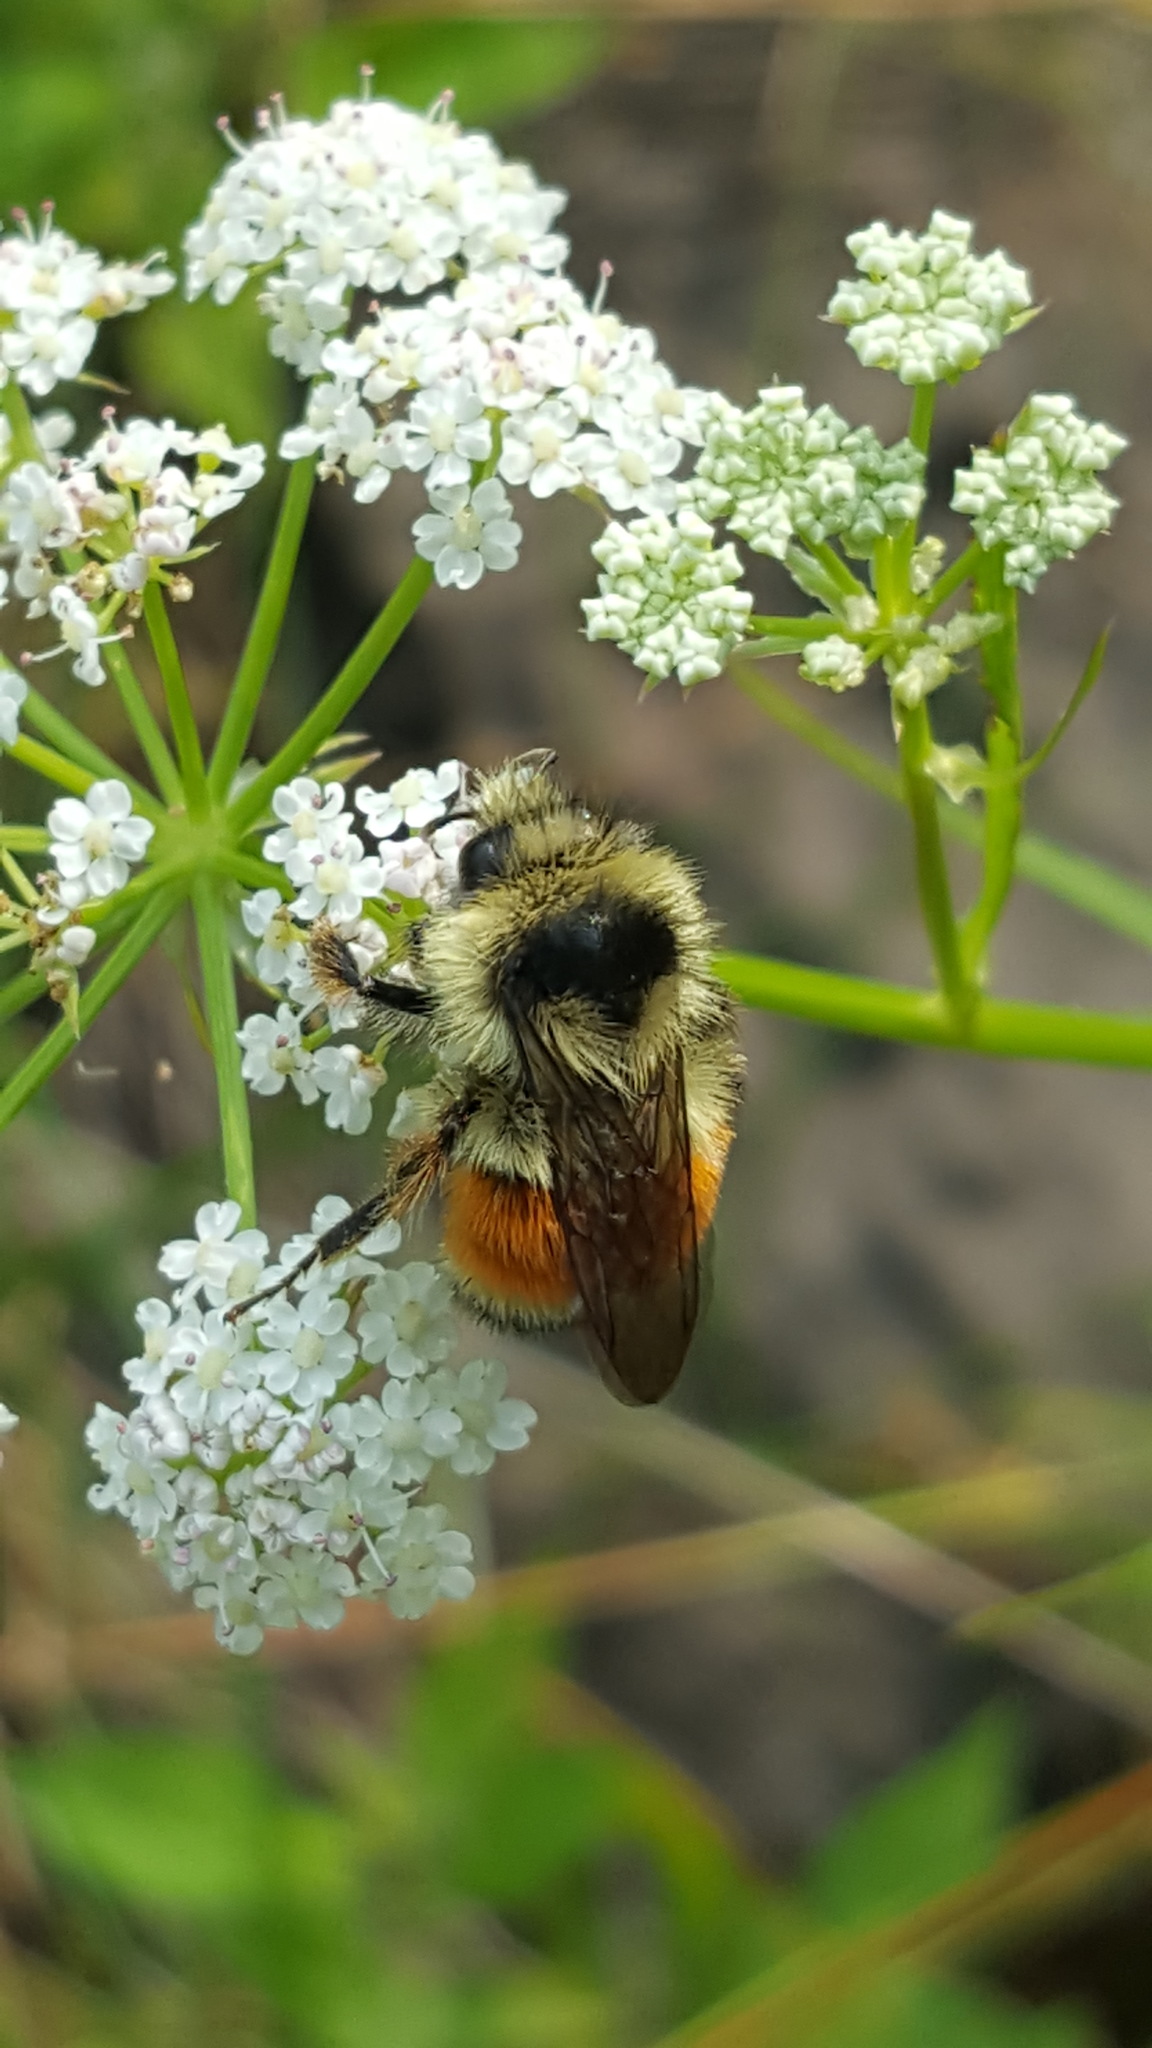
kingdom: Animalia
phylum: Arthropoda
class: Insecta
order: Hymenoptera
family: Apidae
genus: Bombus
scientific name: Bombus ternarius
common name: Tri-colored bumble bee
